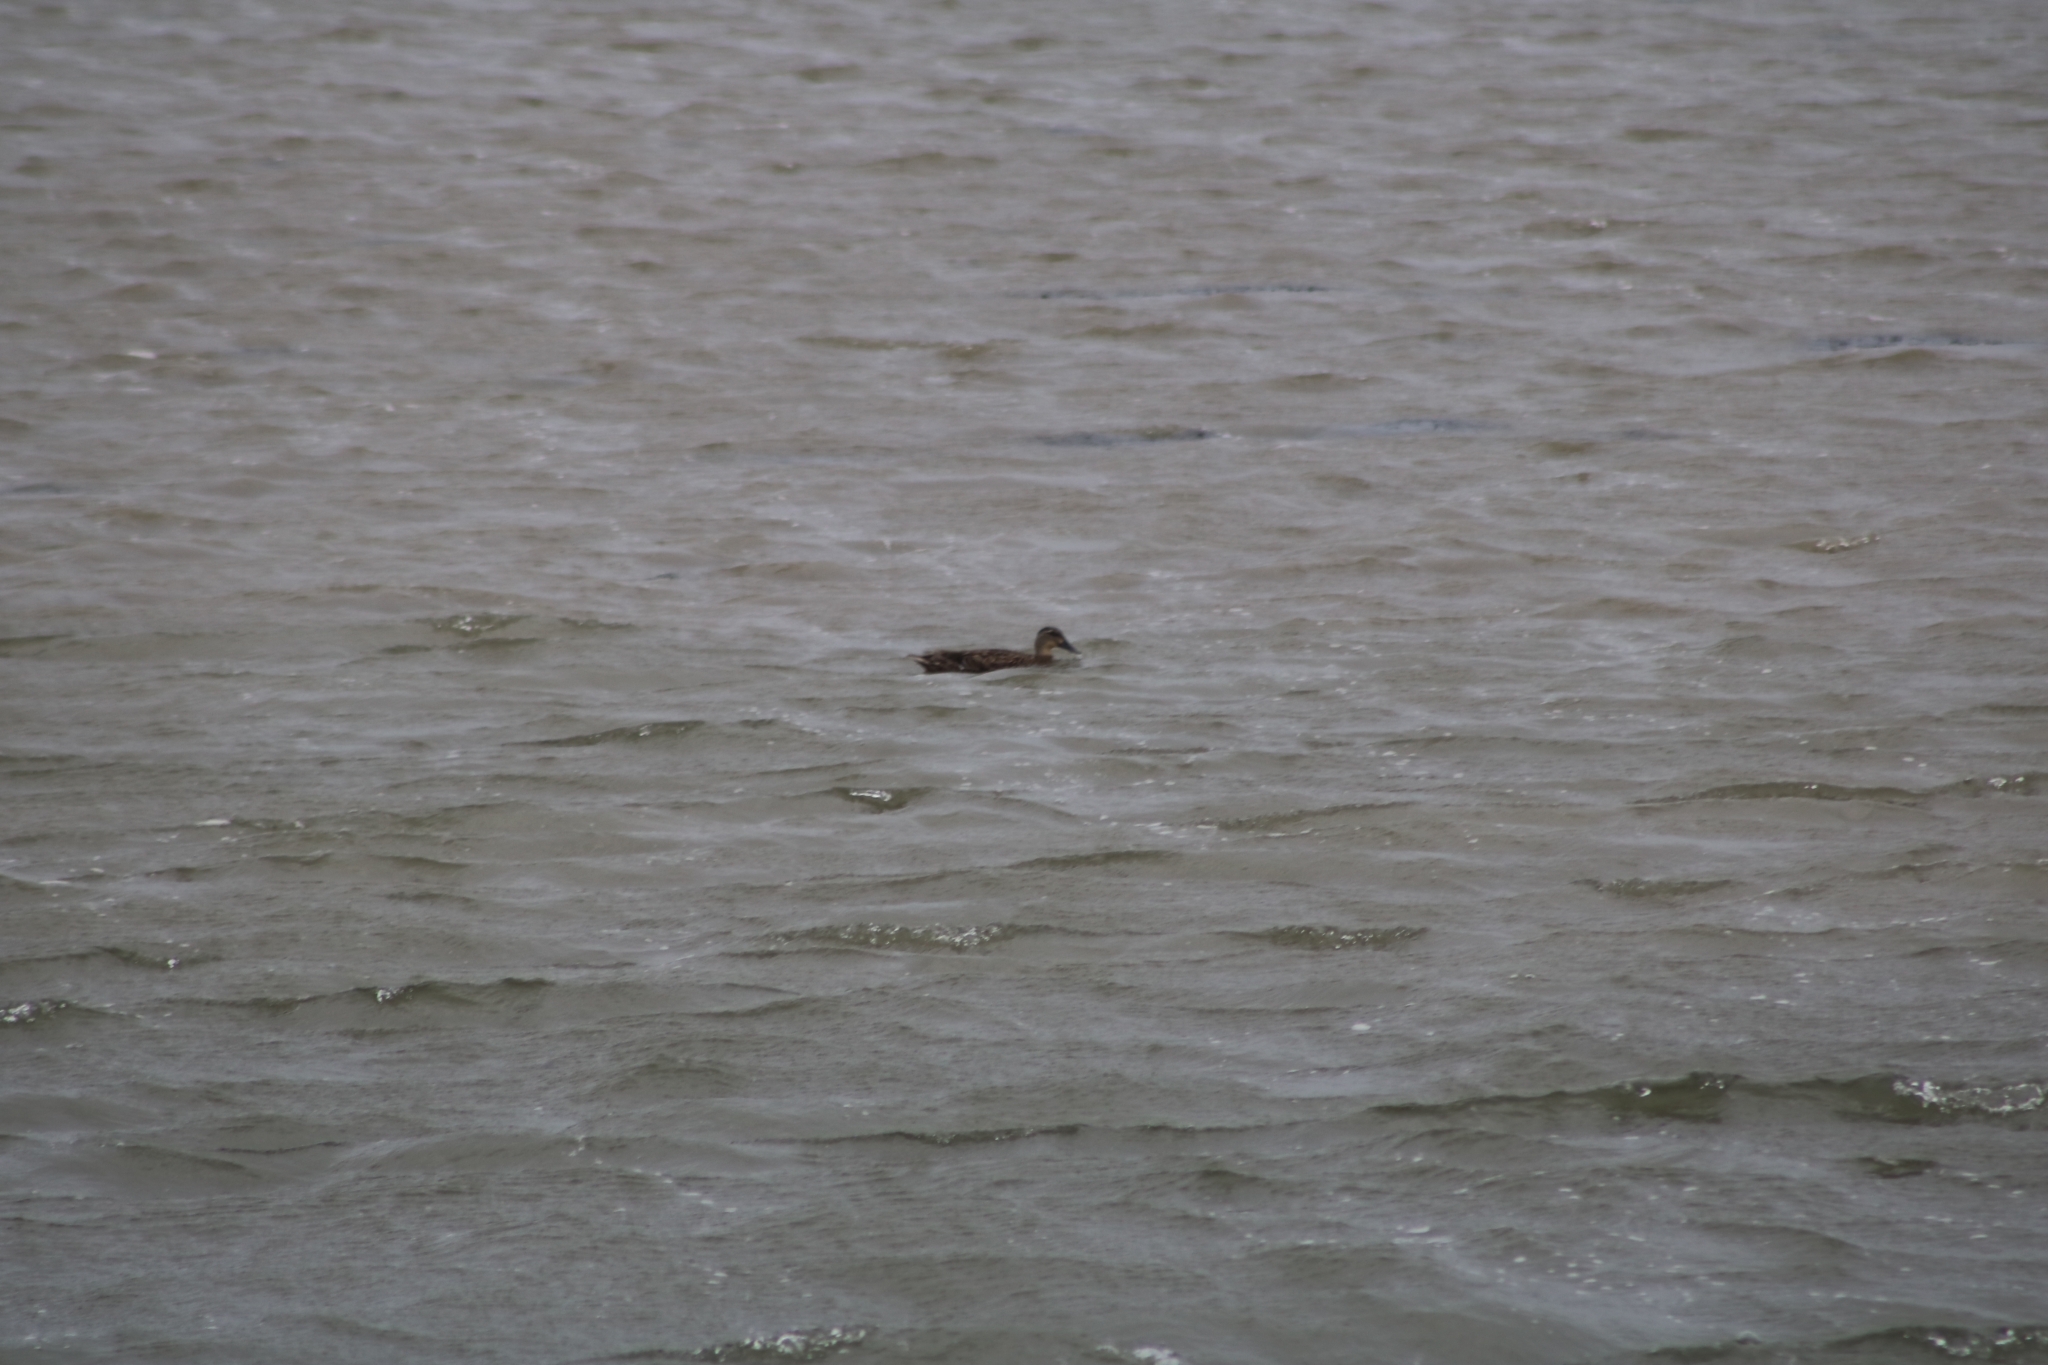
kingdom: Animalia
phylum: Chordata
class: Aves
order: Anseriformes
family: Anatidae
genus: Anas
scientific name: Anas
